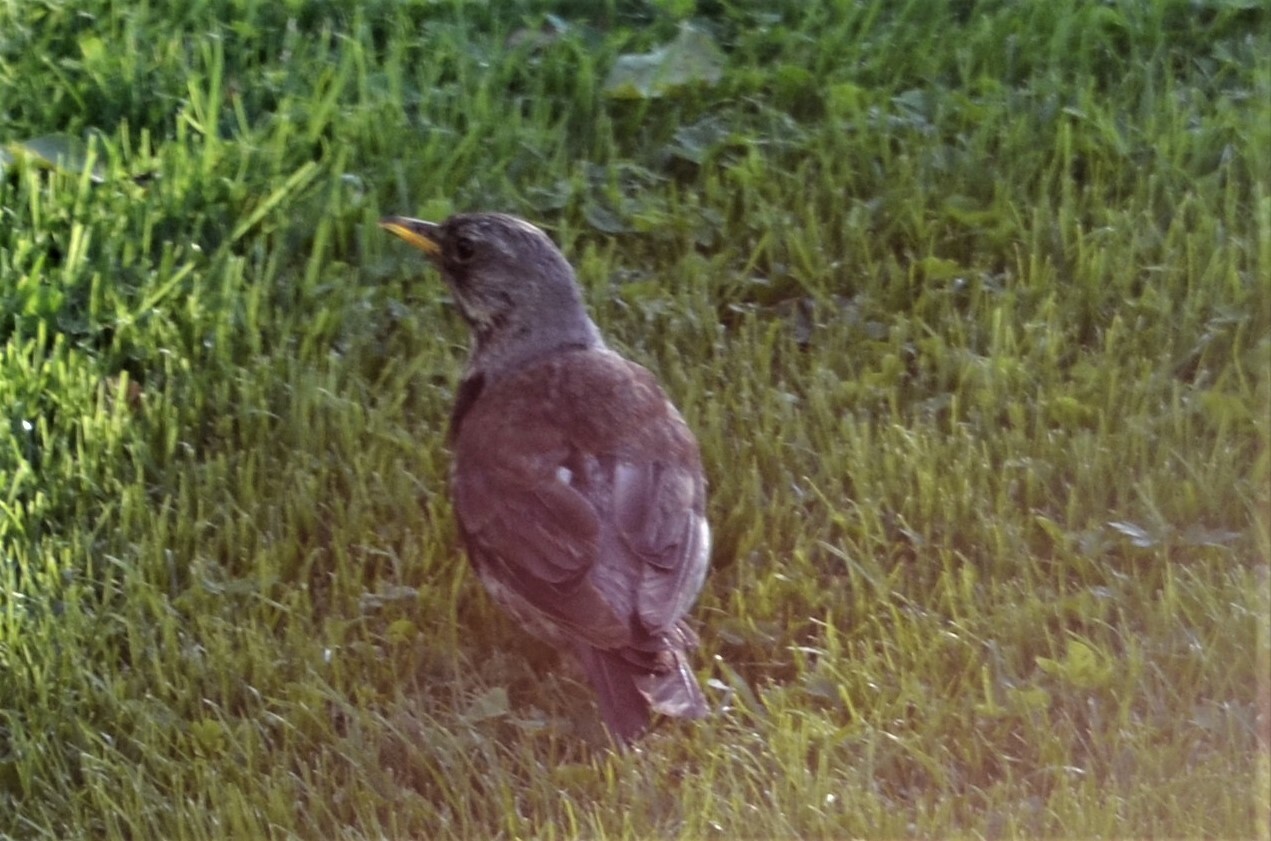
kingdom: Animalia
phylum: Chordata
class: Aves
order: Passeriformes
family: Turdidae
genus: Turdus
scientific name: Turdus pilaris
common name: Fieldfare
